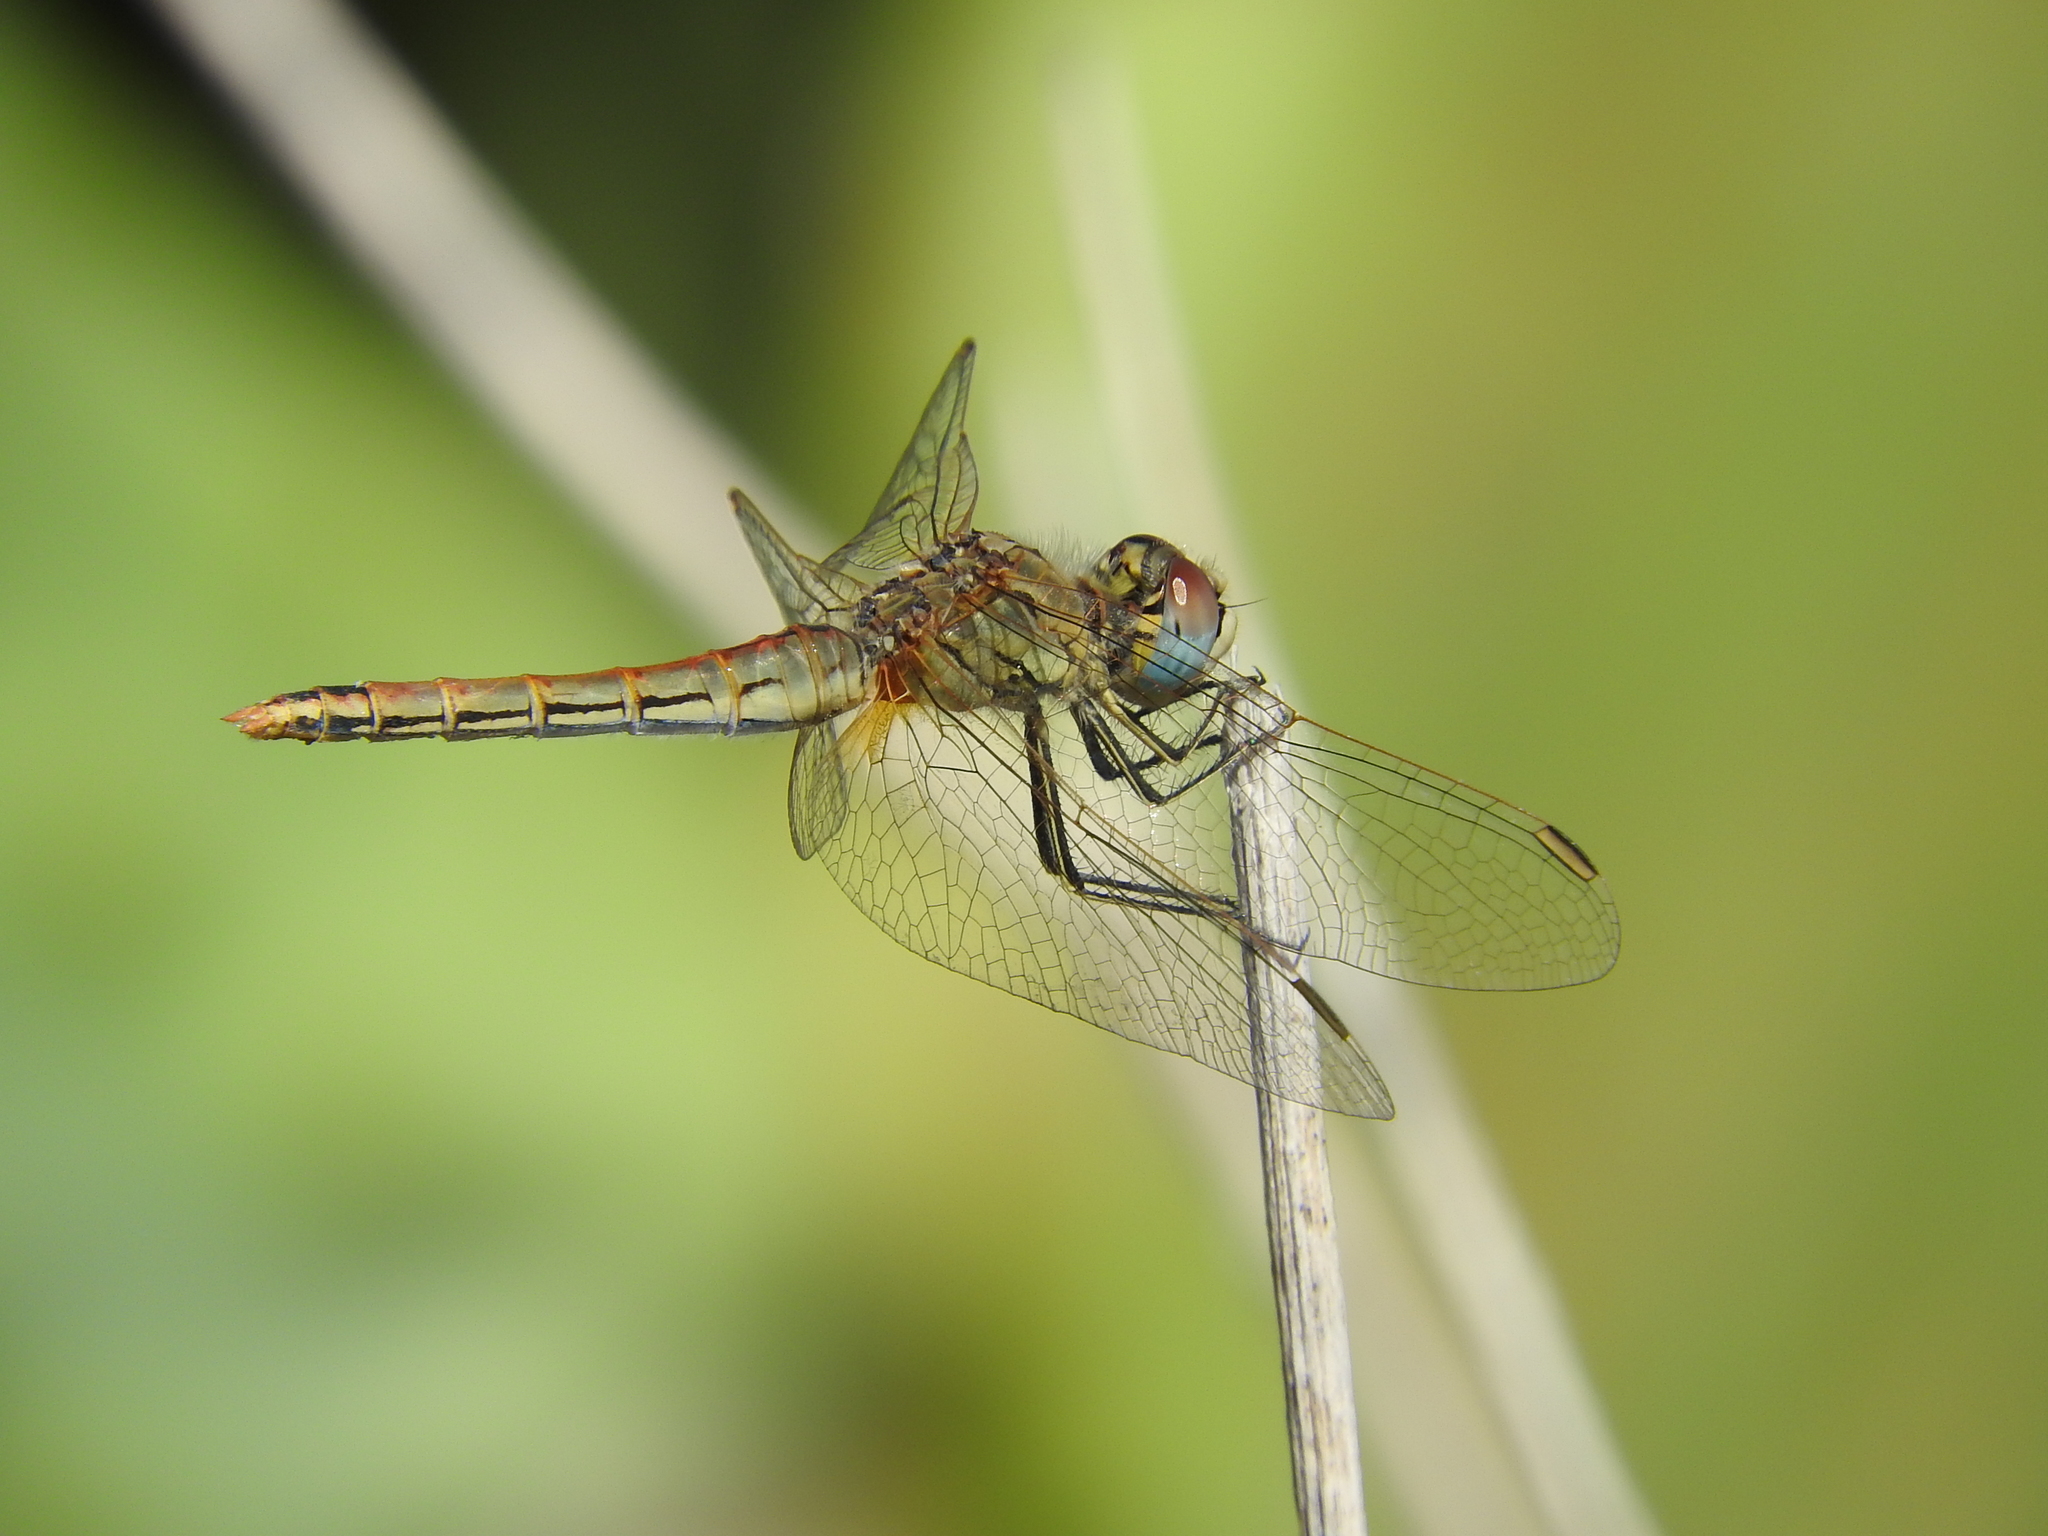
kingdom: Animalia
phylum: Arthropoda
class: Insecta
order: Odonata
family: Libellulidae
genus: Sympetrum
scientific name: Sympetrum fonscolombii
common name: Red-veined darter
